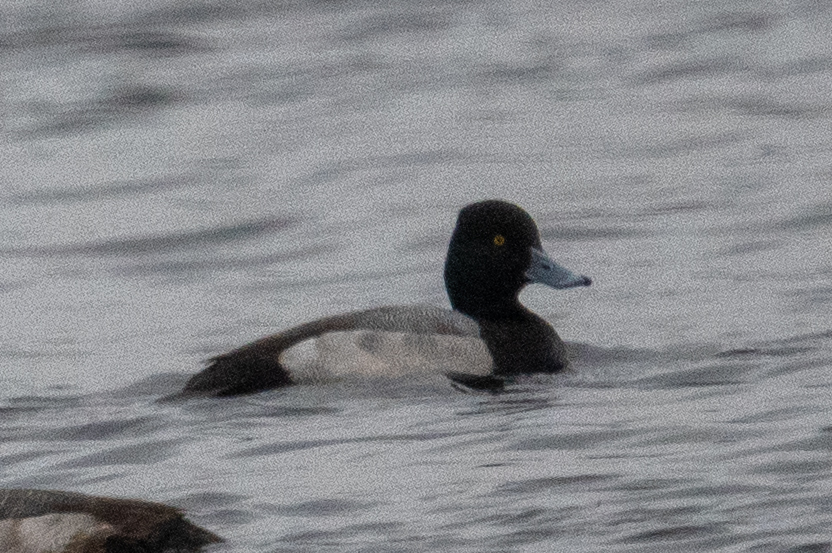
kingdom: Animalia
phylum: Chordata
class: Aves
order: Anseriformes
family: Anatidae
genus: Aythya
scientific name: Aythya affinis
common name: Lesser scaup
